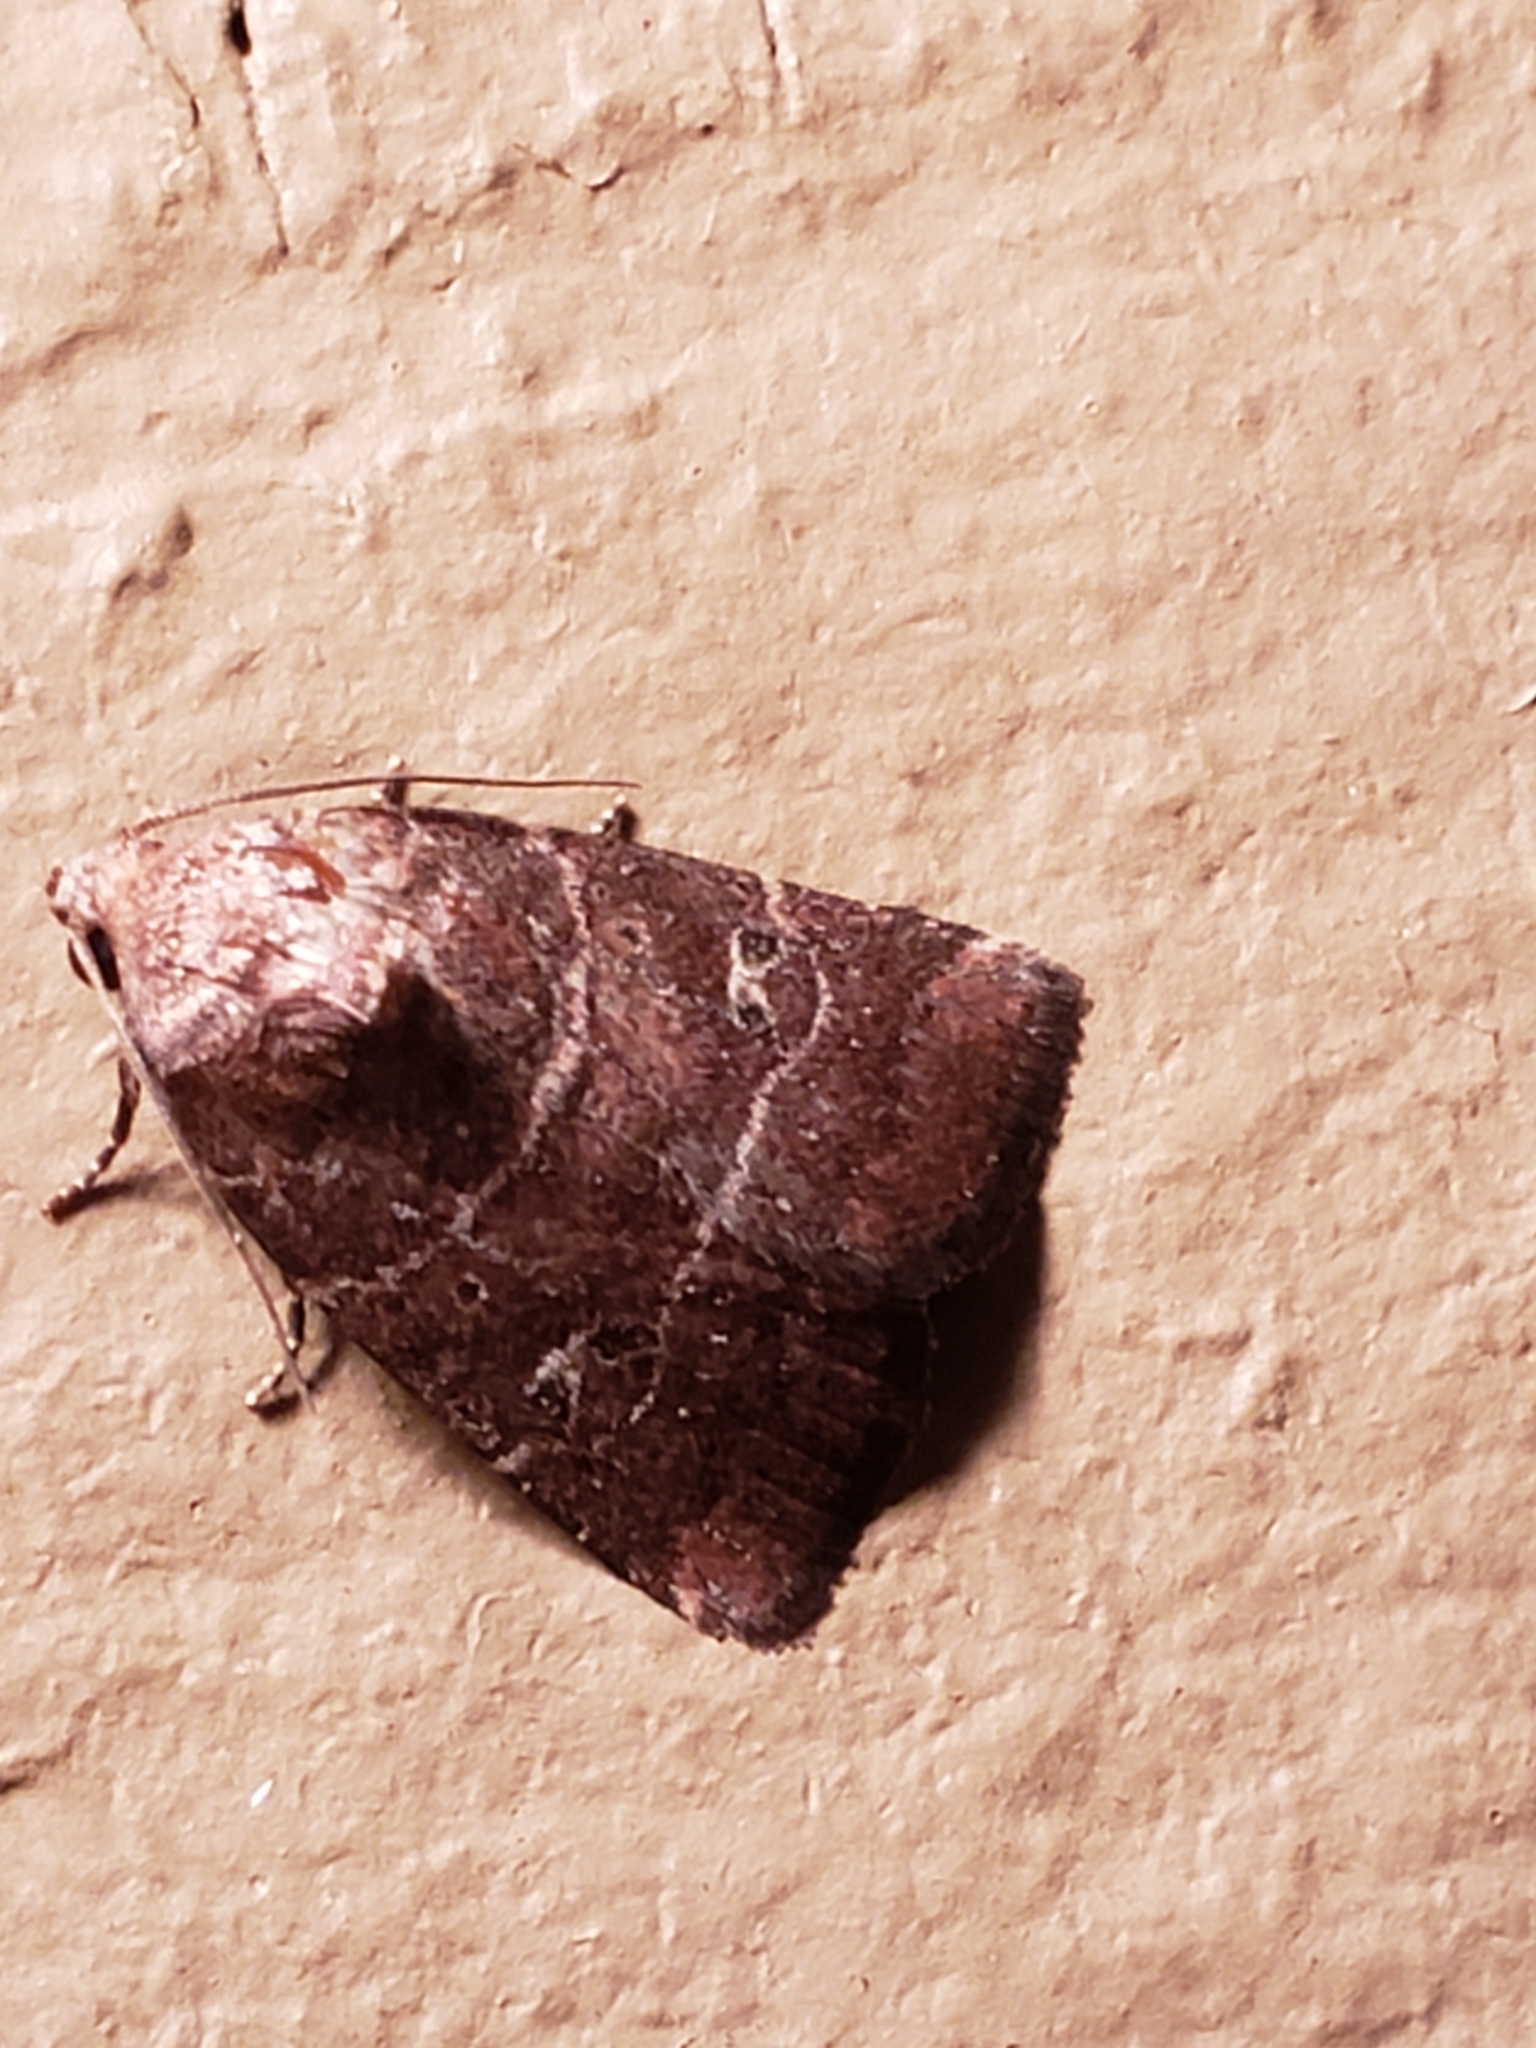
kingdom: Animalia
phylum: Arthropoda
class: Insecta
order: Lepidoptera
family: Noctuidae
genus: Elaphria
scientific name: Elaphria grata
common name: Grateful midget moth
